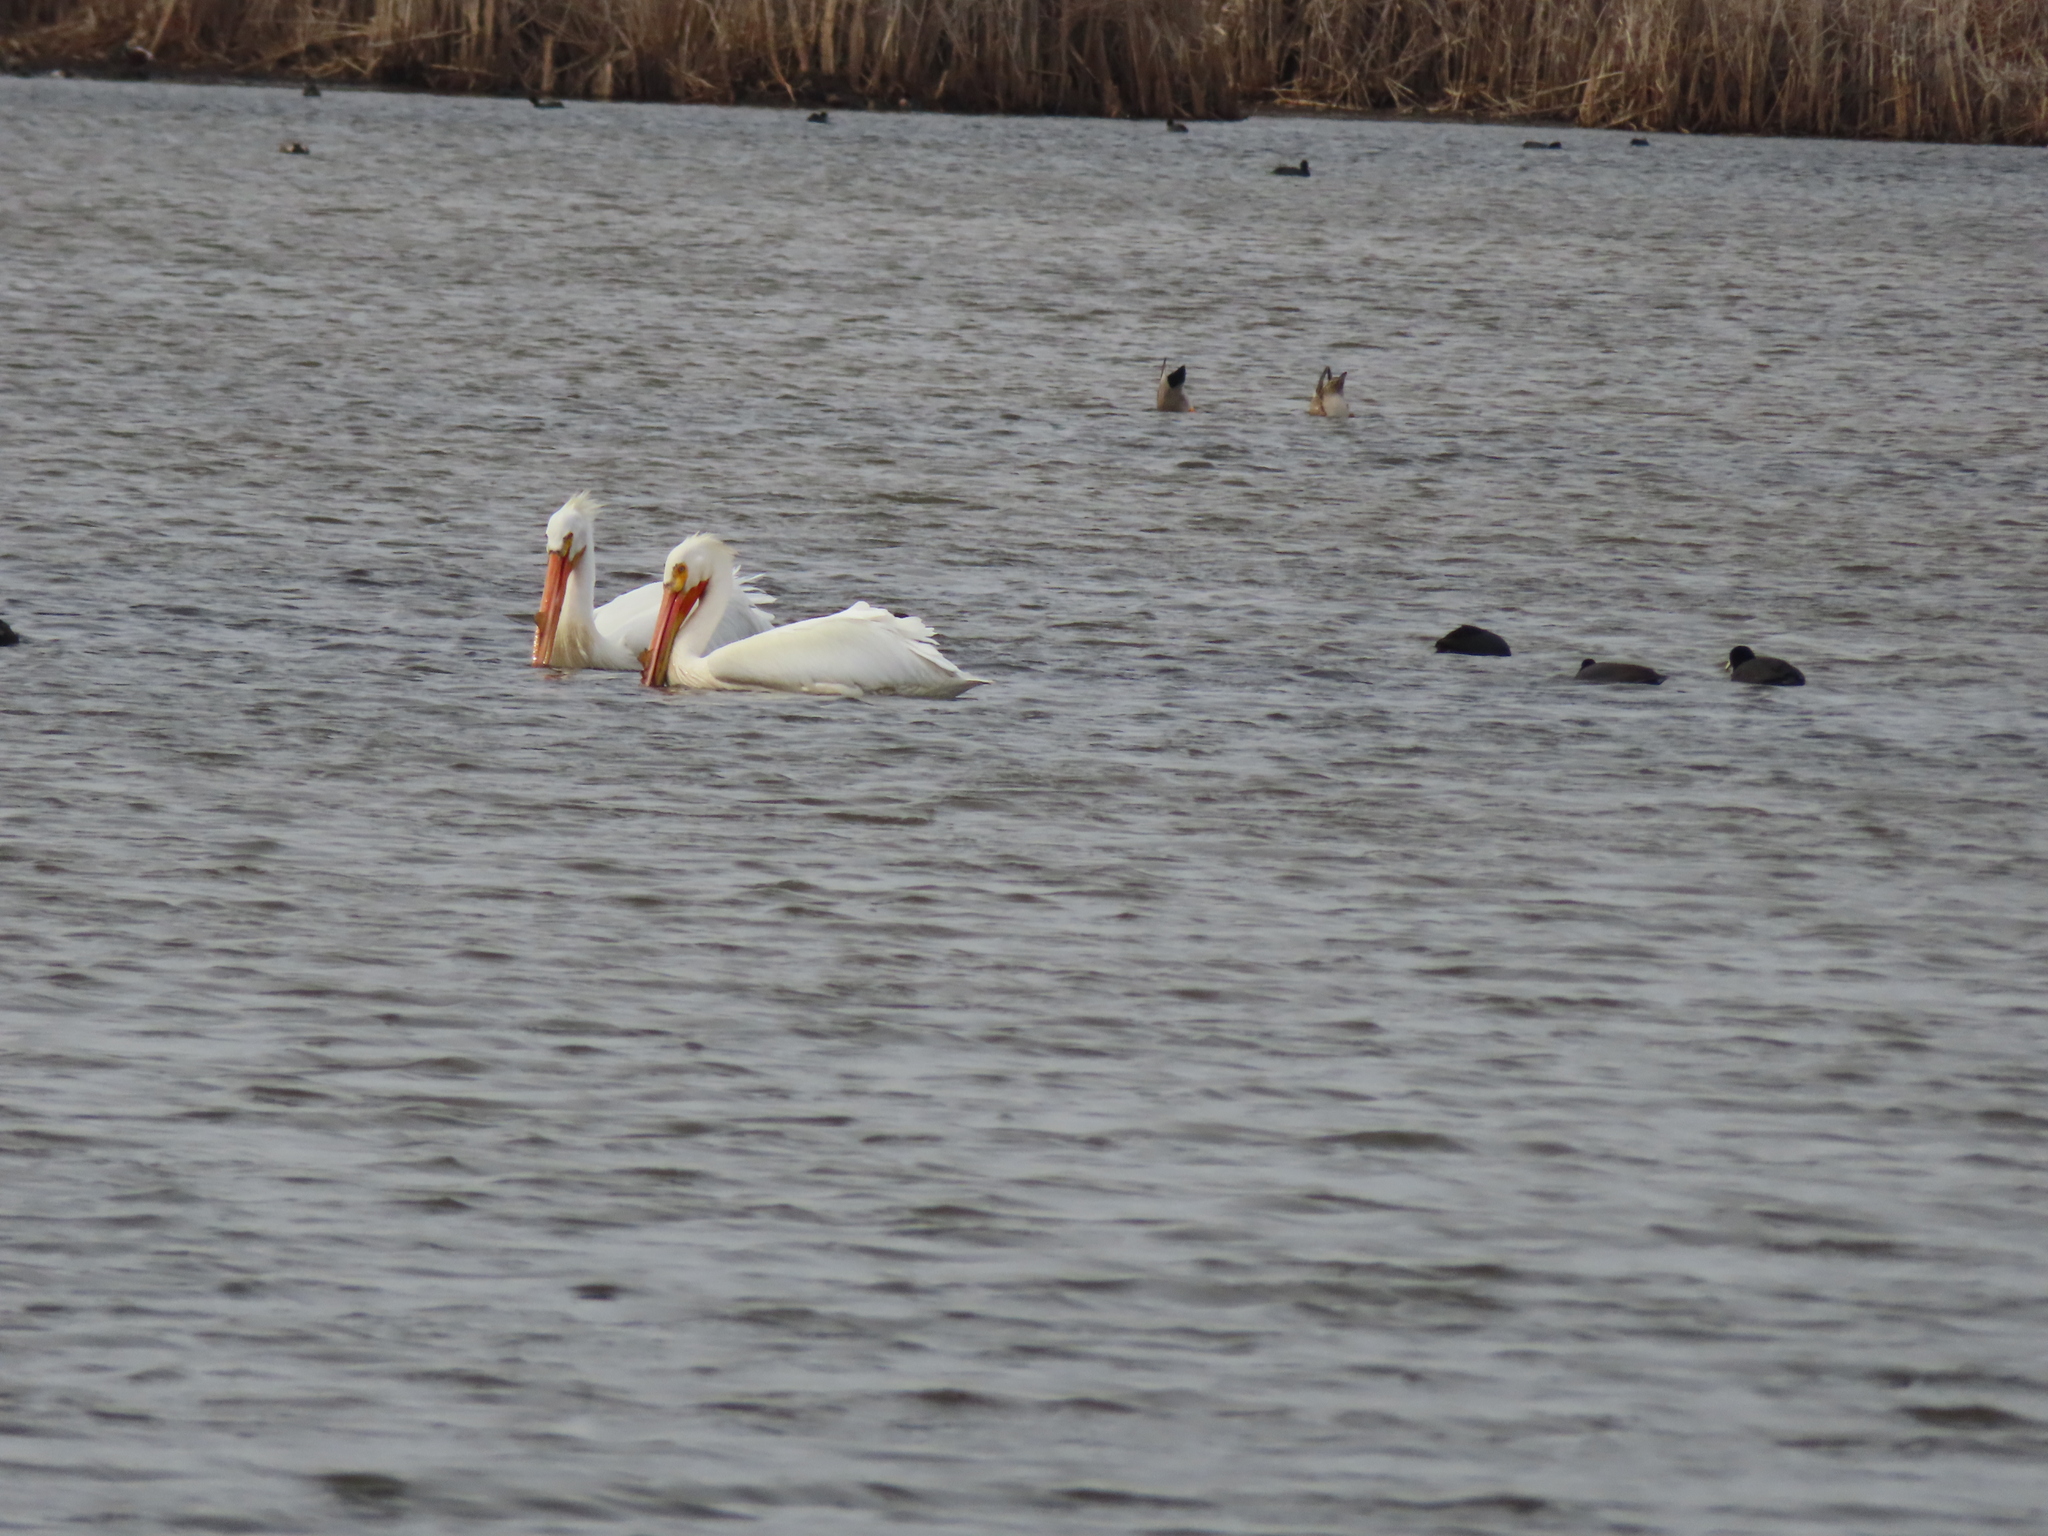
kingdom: Animalia
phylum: Chordata
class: Aves
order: Pelecaniformes
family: Pelecanidae
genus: Pelecanus
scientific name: Pelecanus erythrorhynchos
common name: American white pelican
